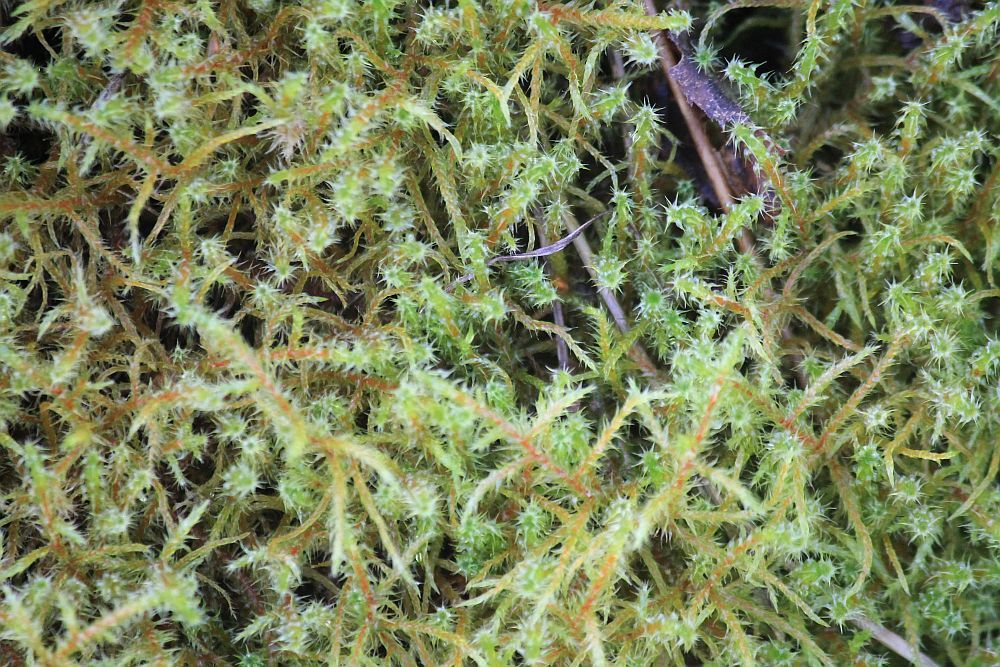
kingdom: Plantae
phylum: Bryophyta
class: Bryopsida
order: Hypnales
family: Hylocomiaceae
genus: Rhytidiadelphus
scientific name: Rhytidiadelphus squarrosus
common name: Springy turf-moss
